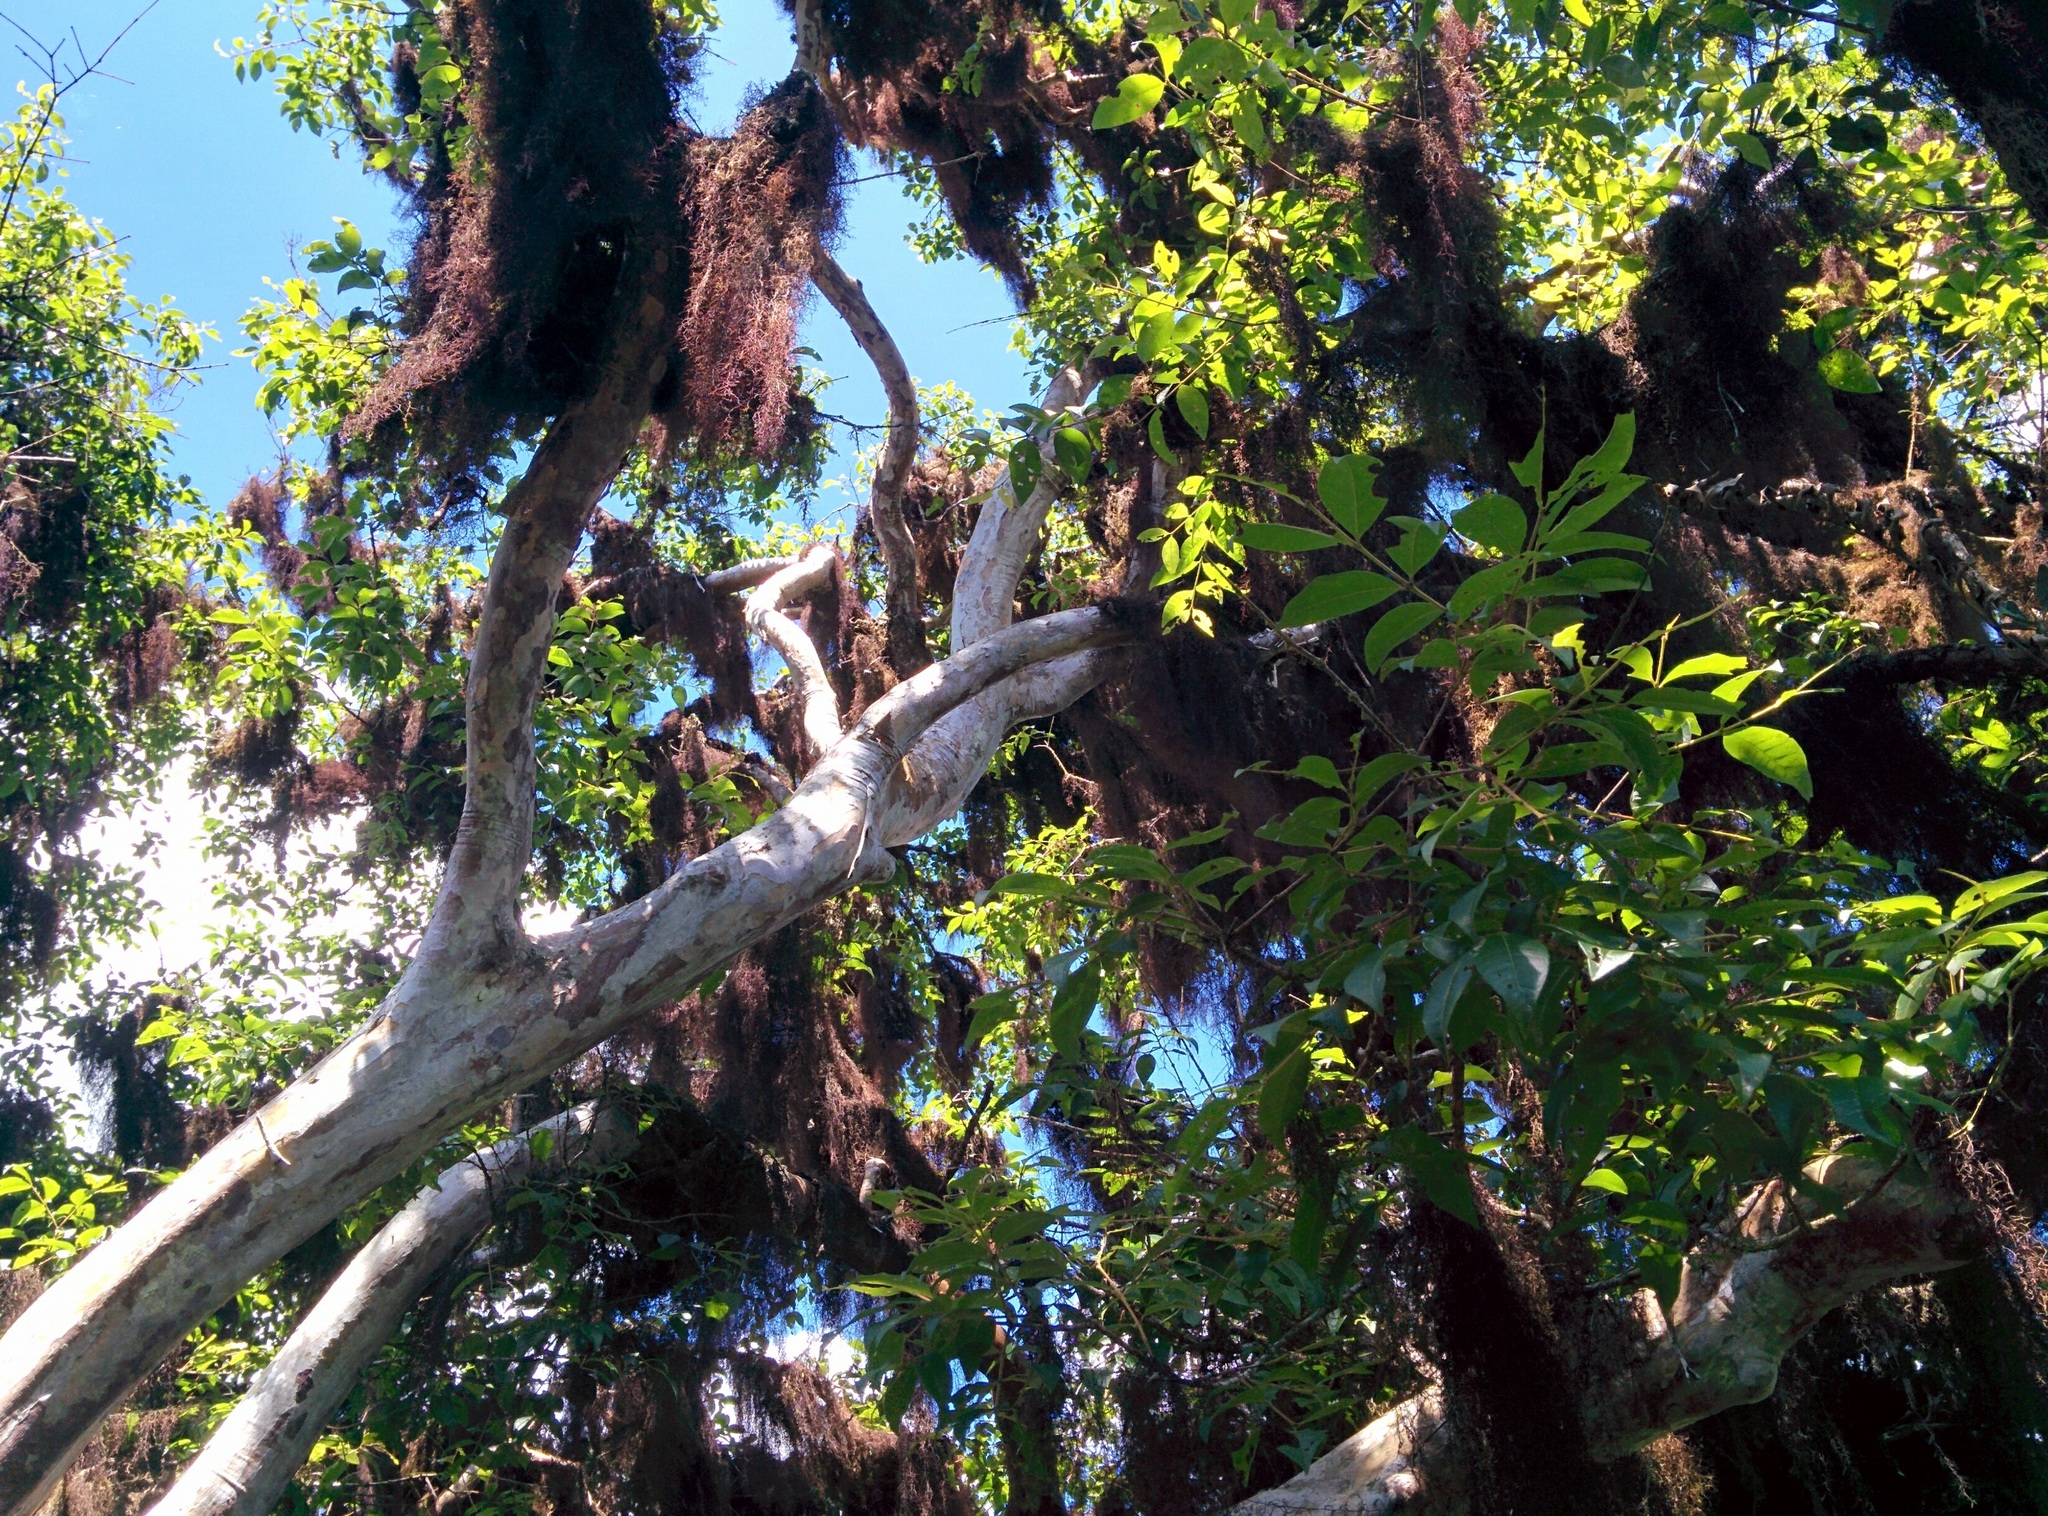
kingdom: Plantae
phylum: Tracheophyta
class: Magnoliopsida
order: Myrtales
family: Myrtaceae
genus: Psidium
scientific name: Psidium galapageium
